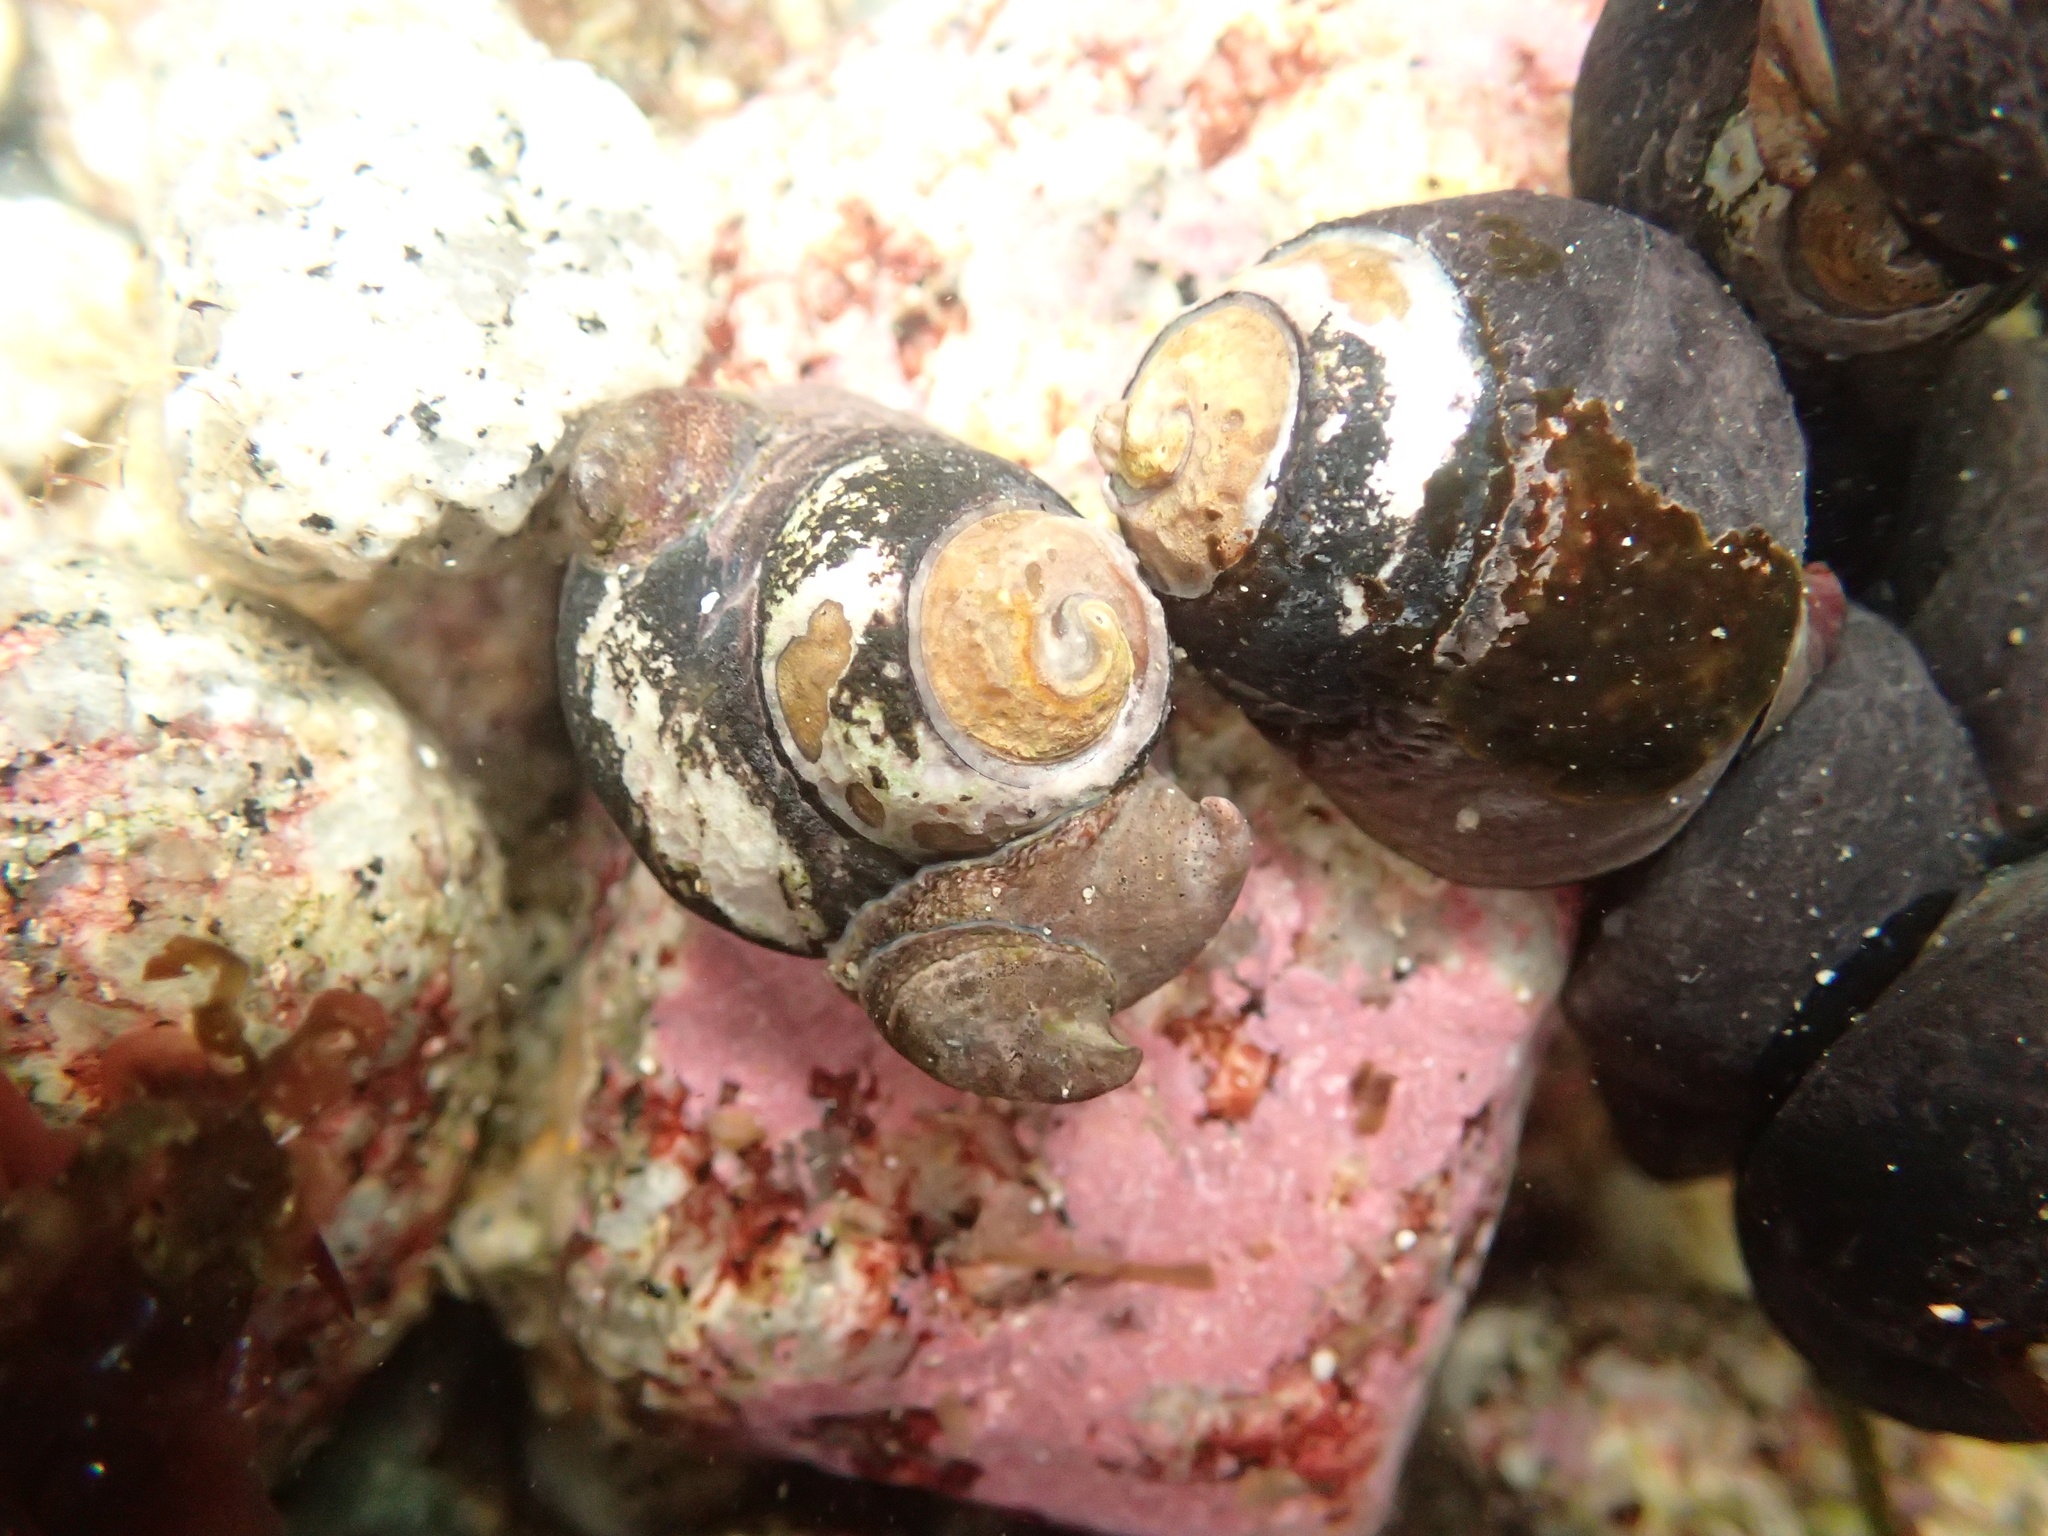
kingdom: Animalia
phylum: Mollusca
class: Gastropoda
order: Littorinimorpha
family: Calyptraeidae
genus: Crepidula
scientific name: Crepidula adunca
